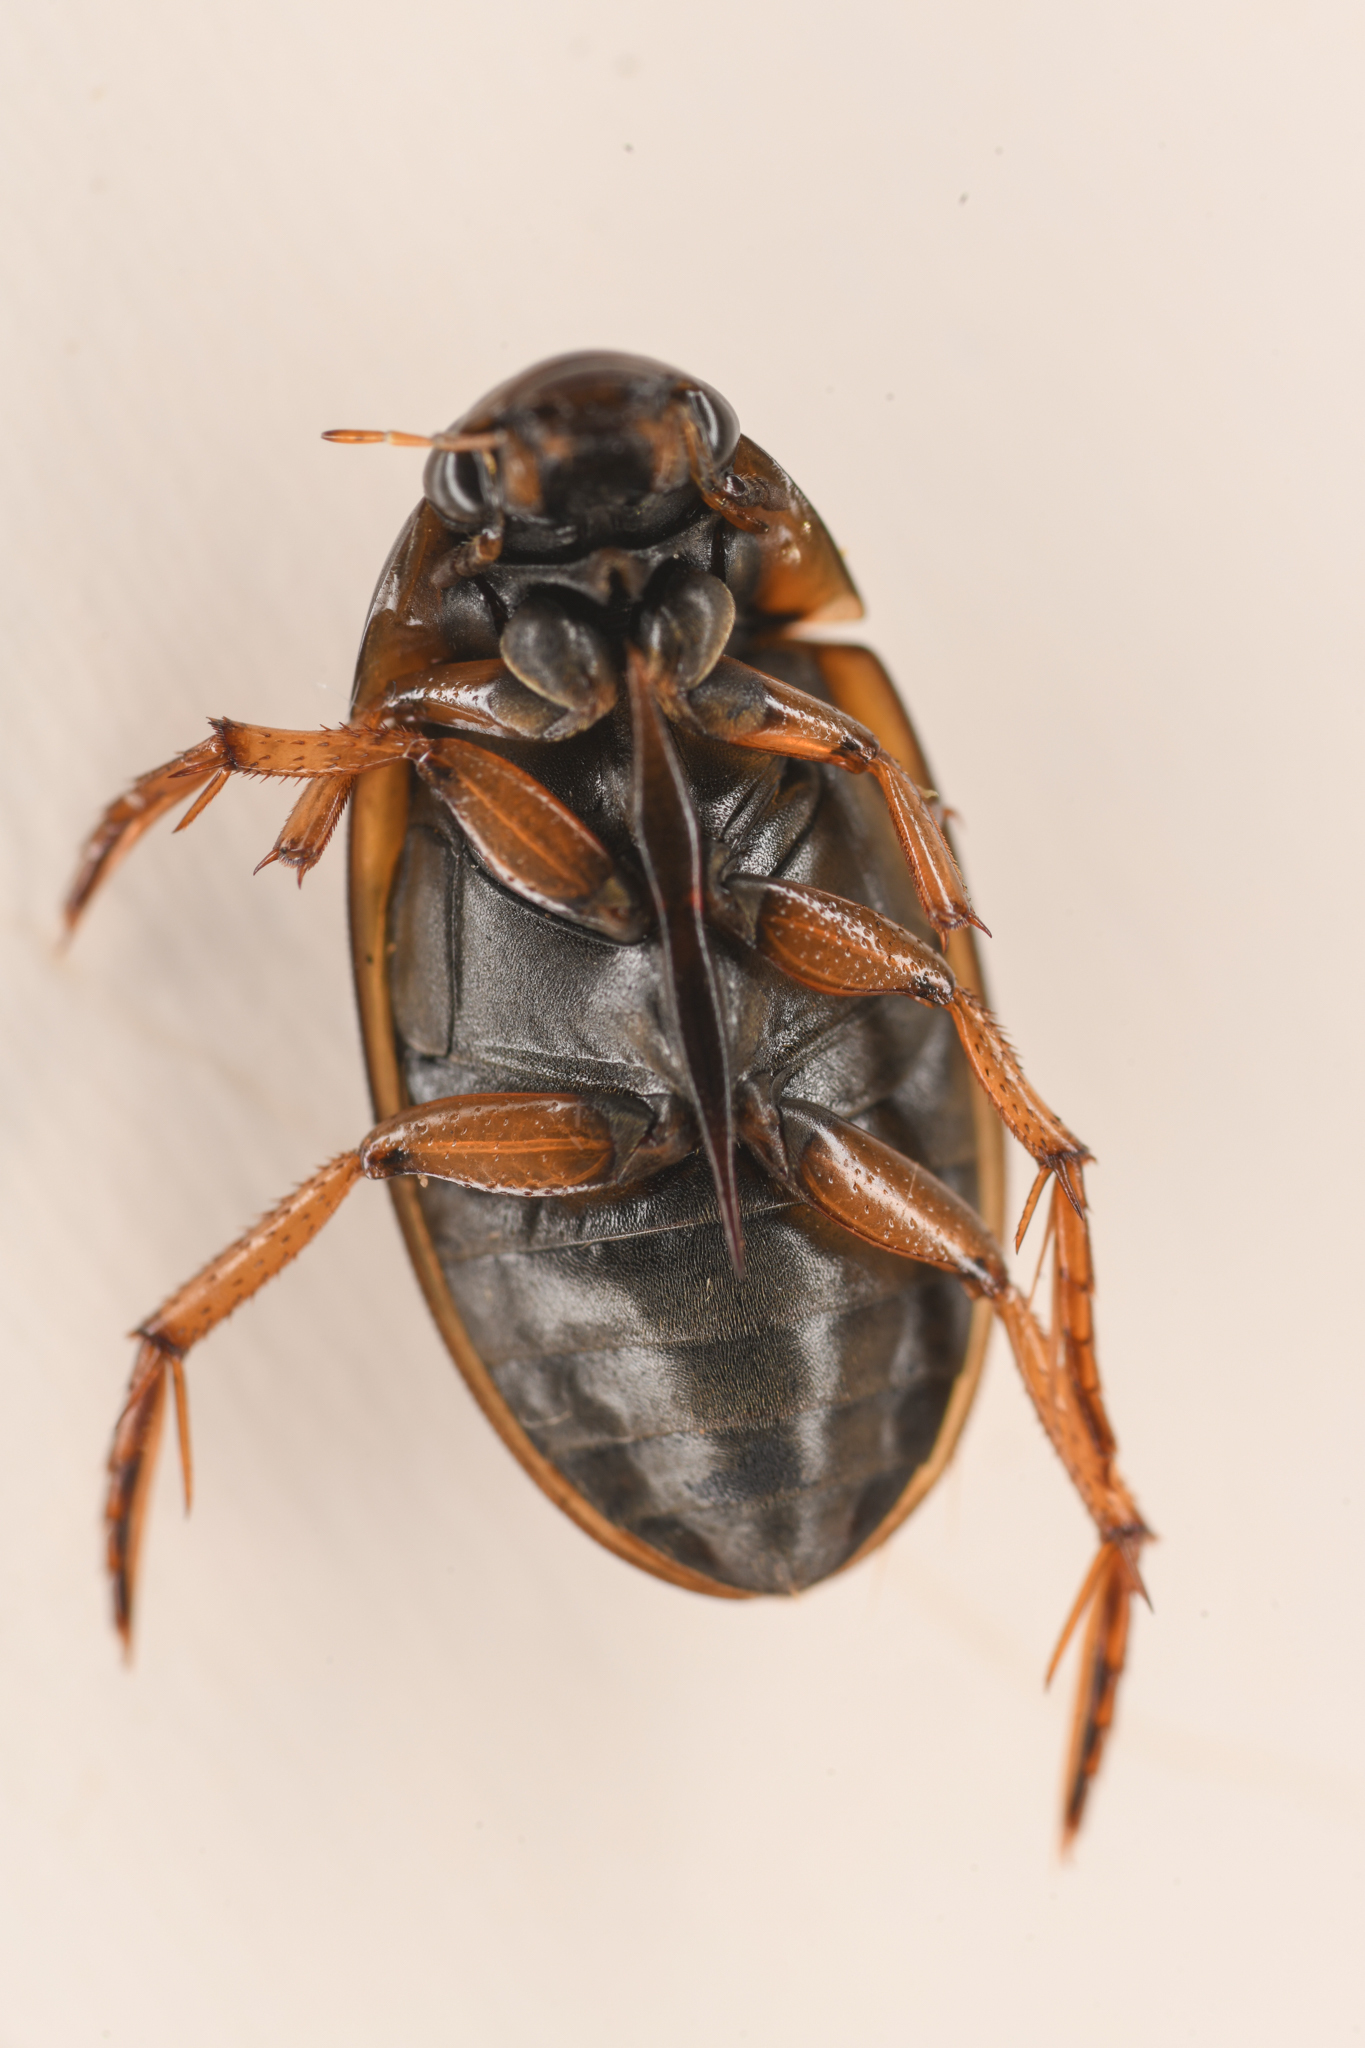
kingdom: Animalia
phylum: Arthropoda
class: Insecta
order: Coleoptera
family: Hydrophilidae
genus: Tropisternus
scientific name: Tropisternus lateralis
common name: Lateral-banded water scavenger beetle
